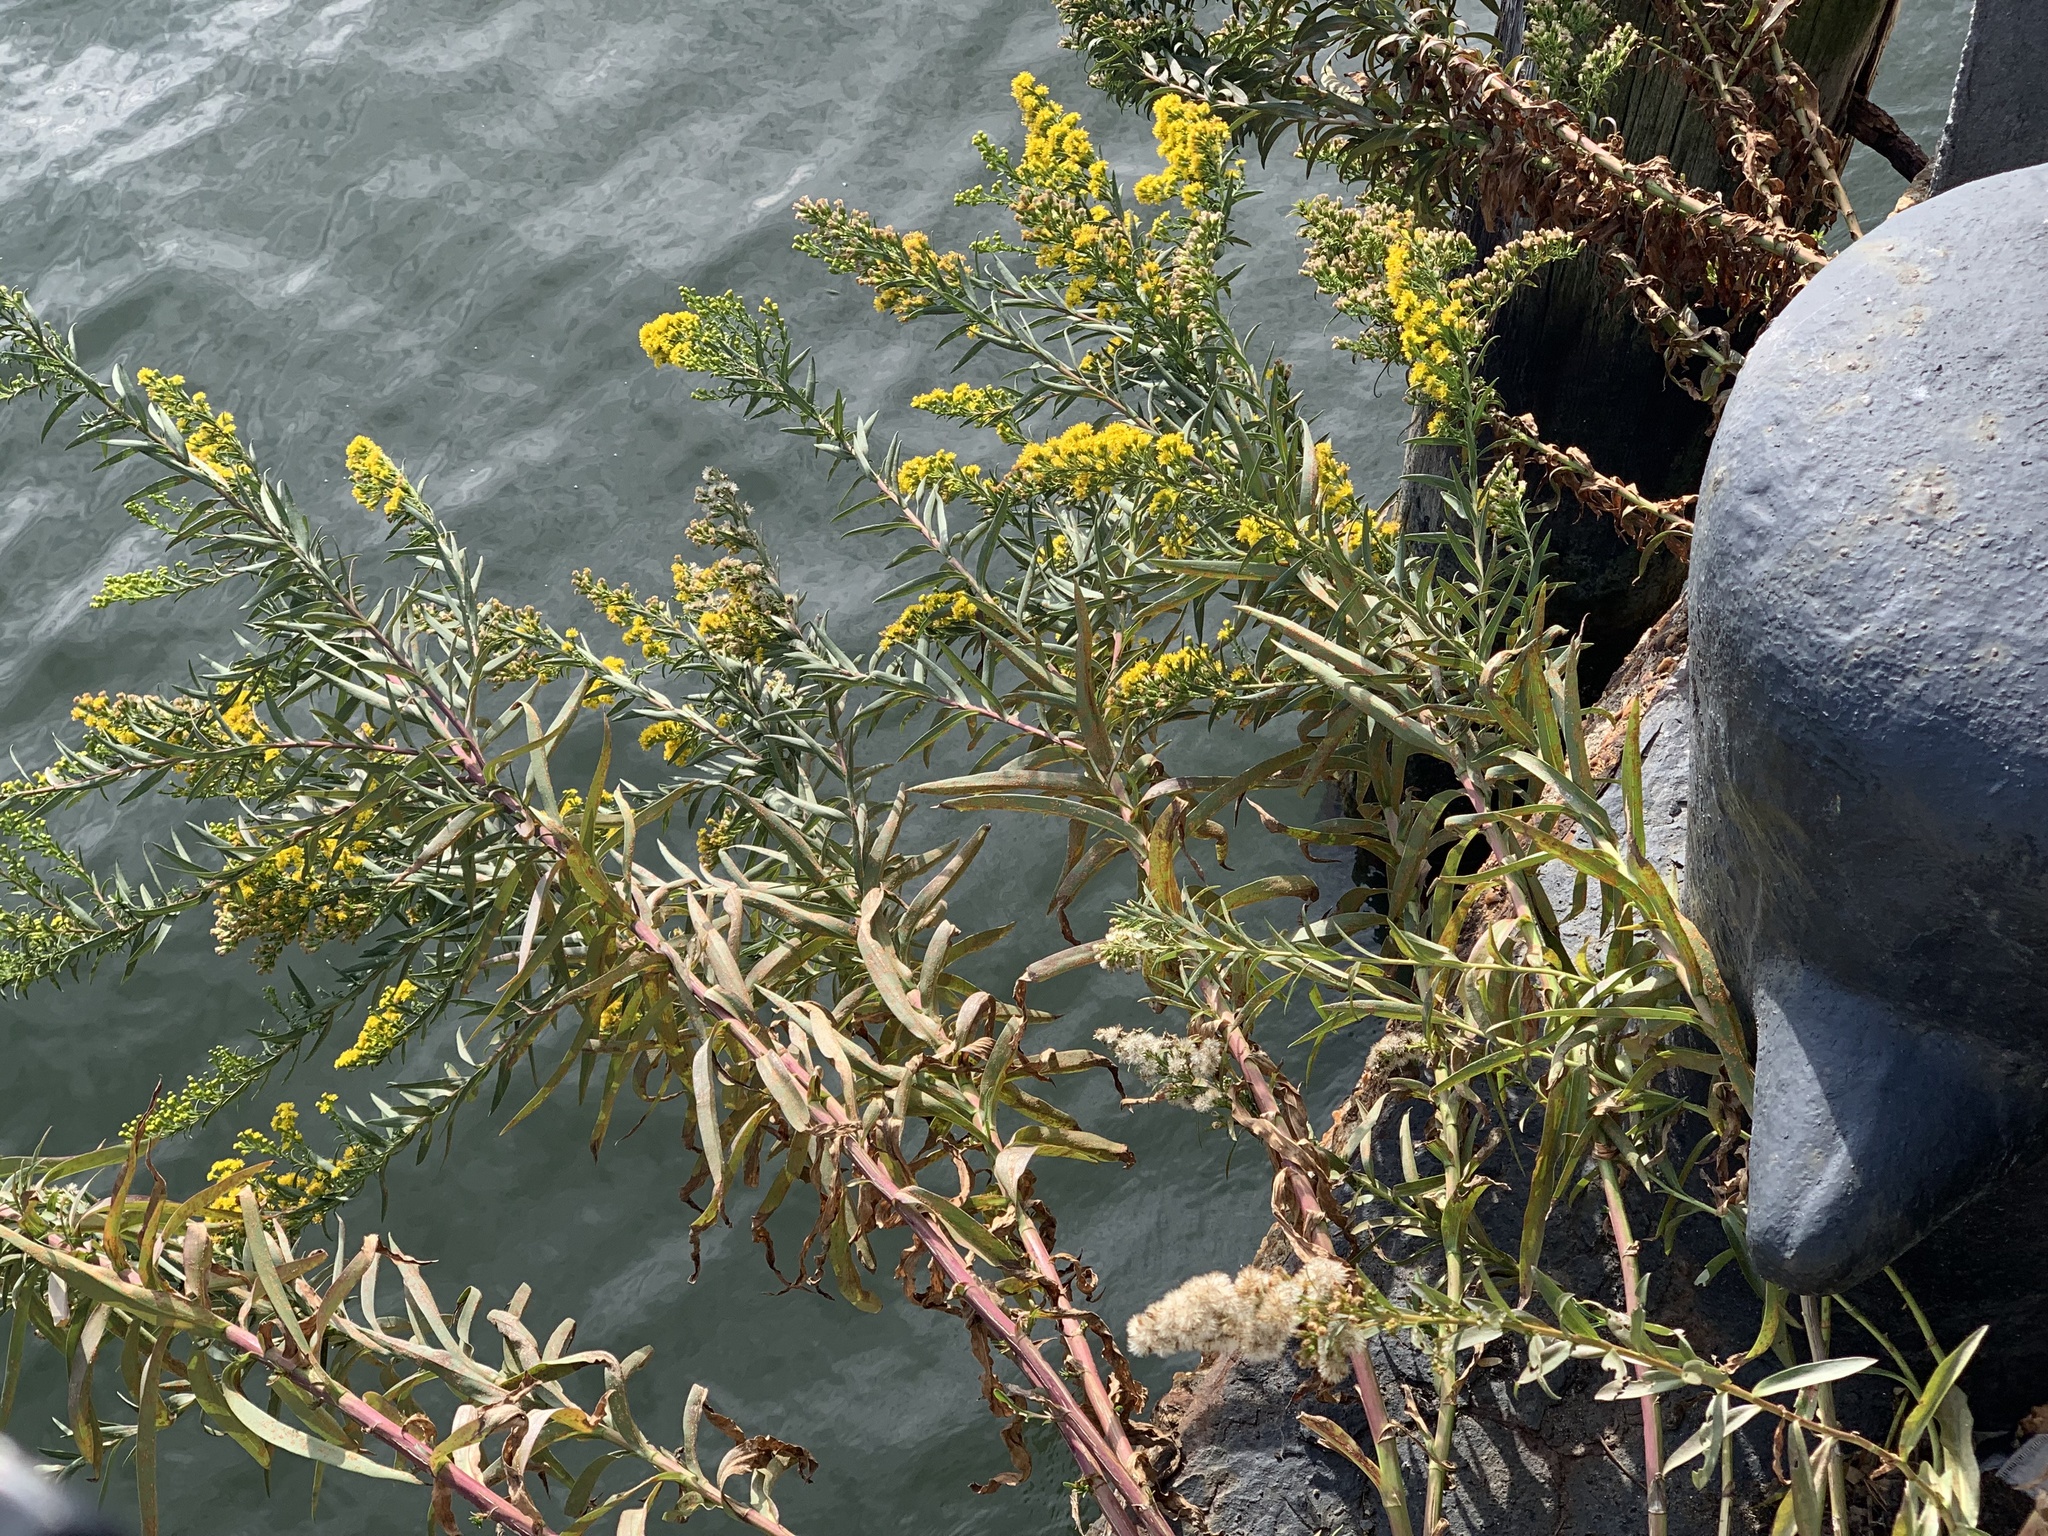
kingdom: Plantae
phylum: Tracheophyta
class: Magnoliopsida
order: Asterales
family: Asteraceae
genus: Solidago
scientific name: Solidago sempervirens
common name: Salt-marsh goldenrod
